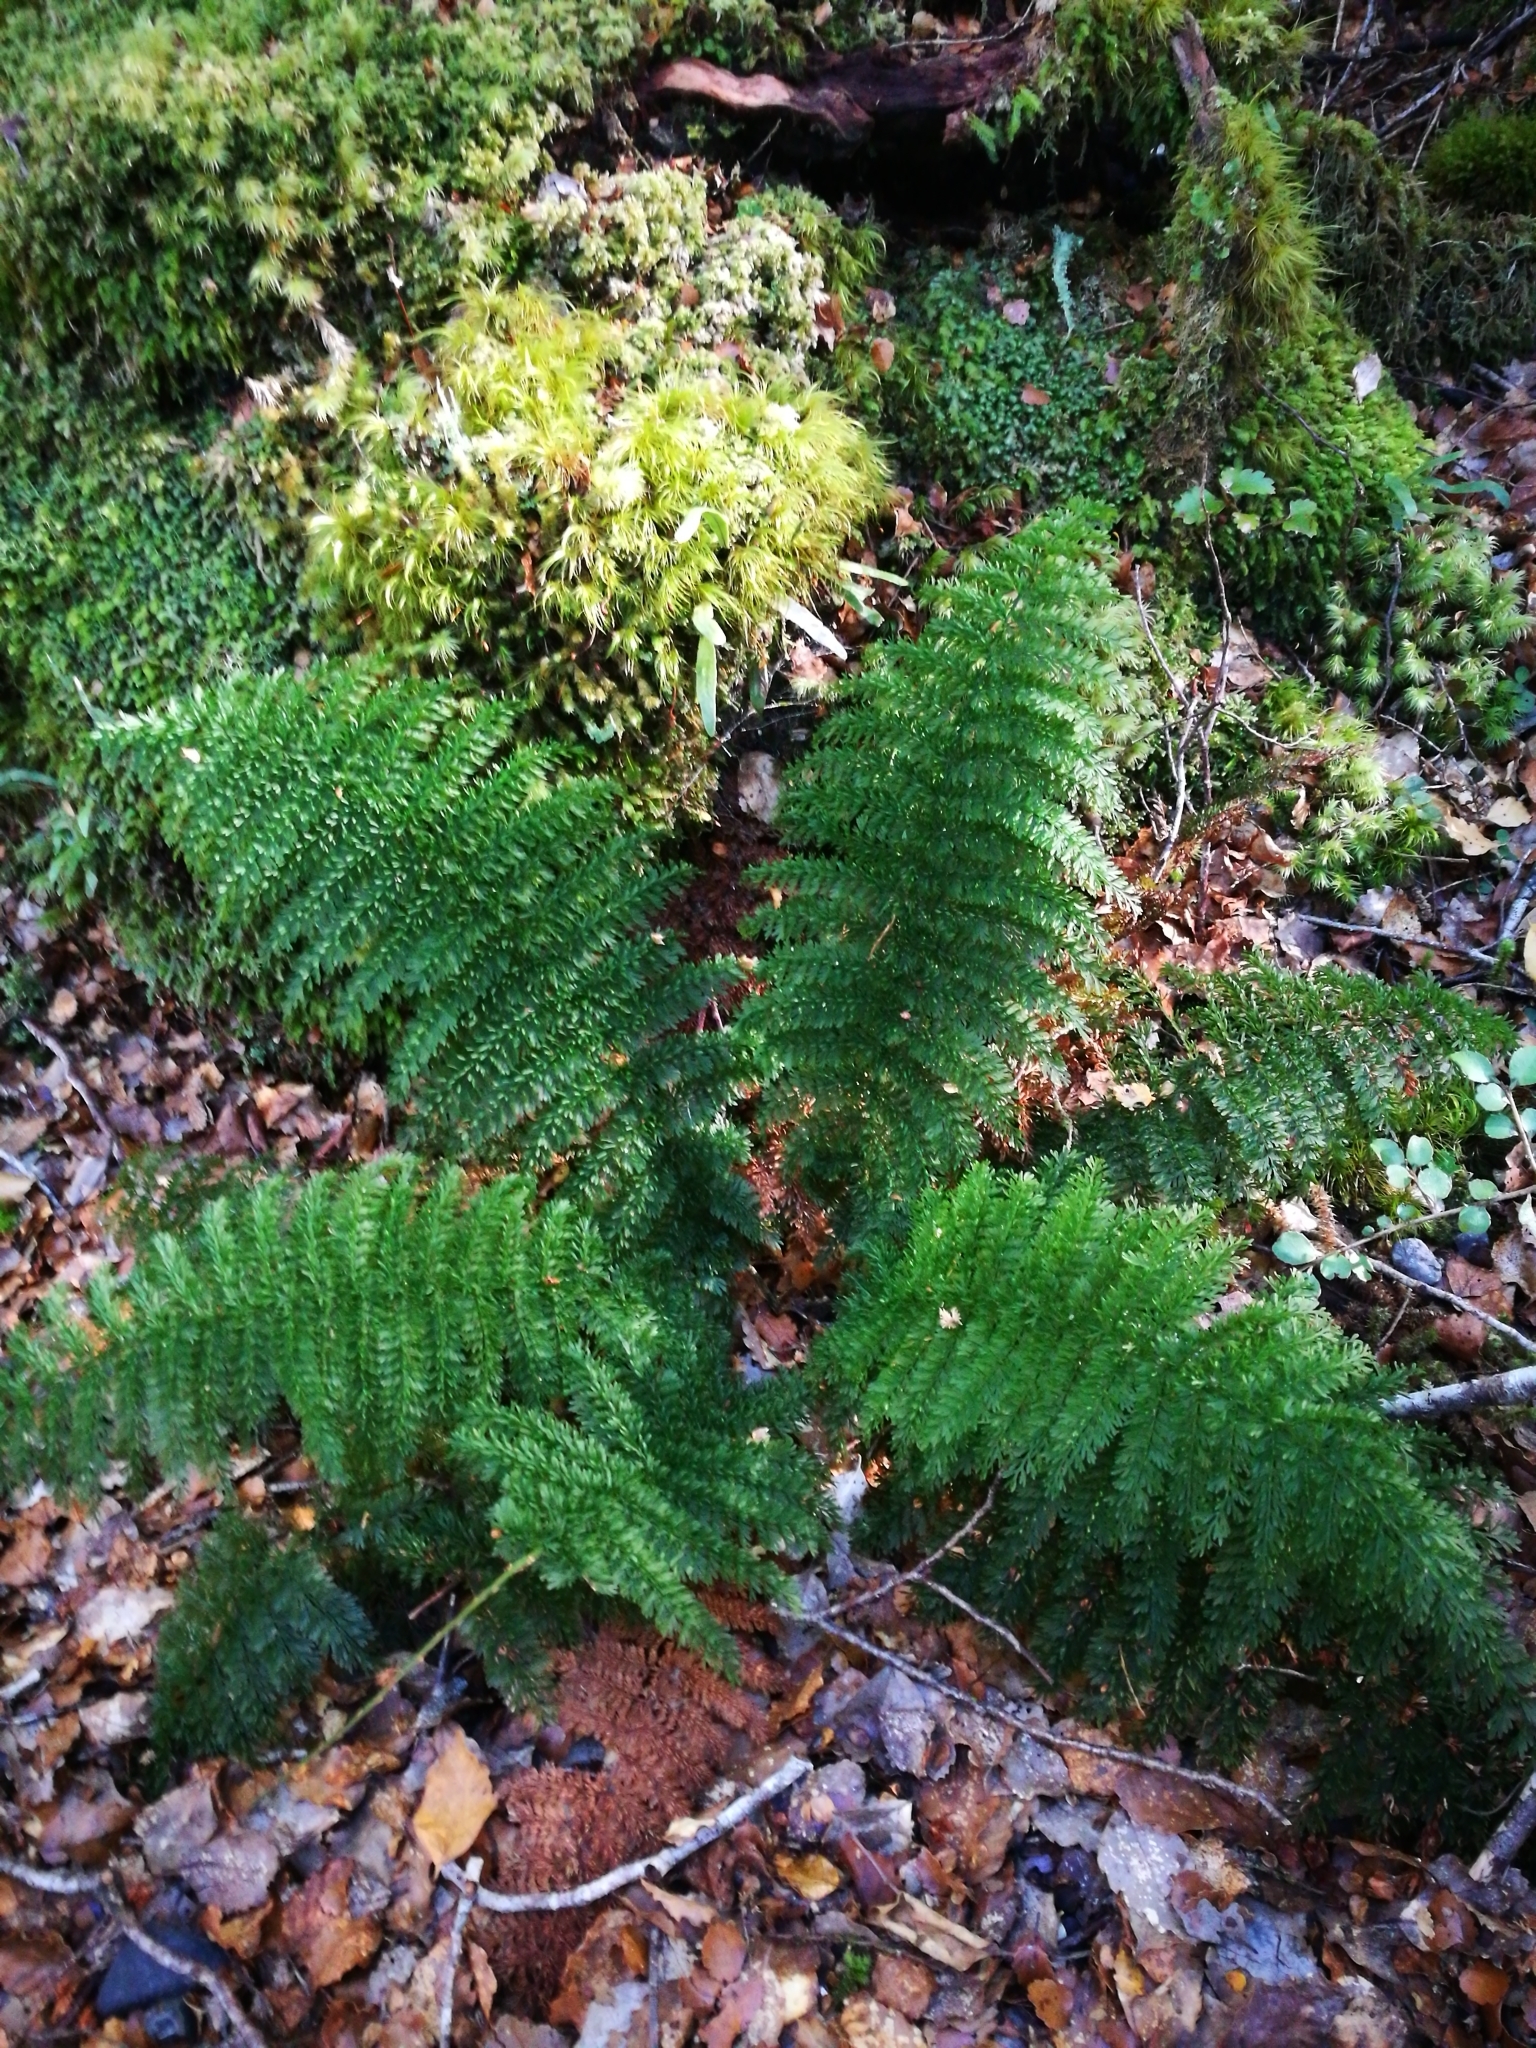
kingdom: Plantae
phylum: Tracheophyta
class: Polypodiopsida
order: Osmundales
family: Osmundaceae
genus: Leptopteris
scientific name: Leptopteris superba
